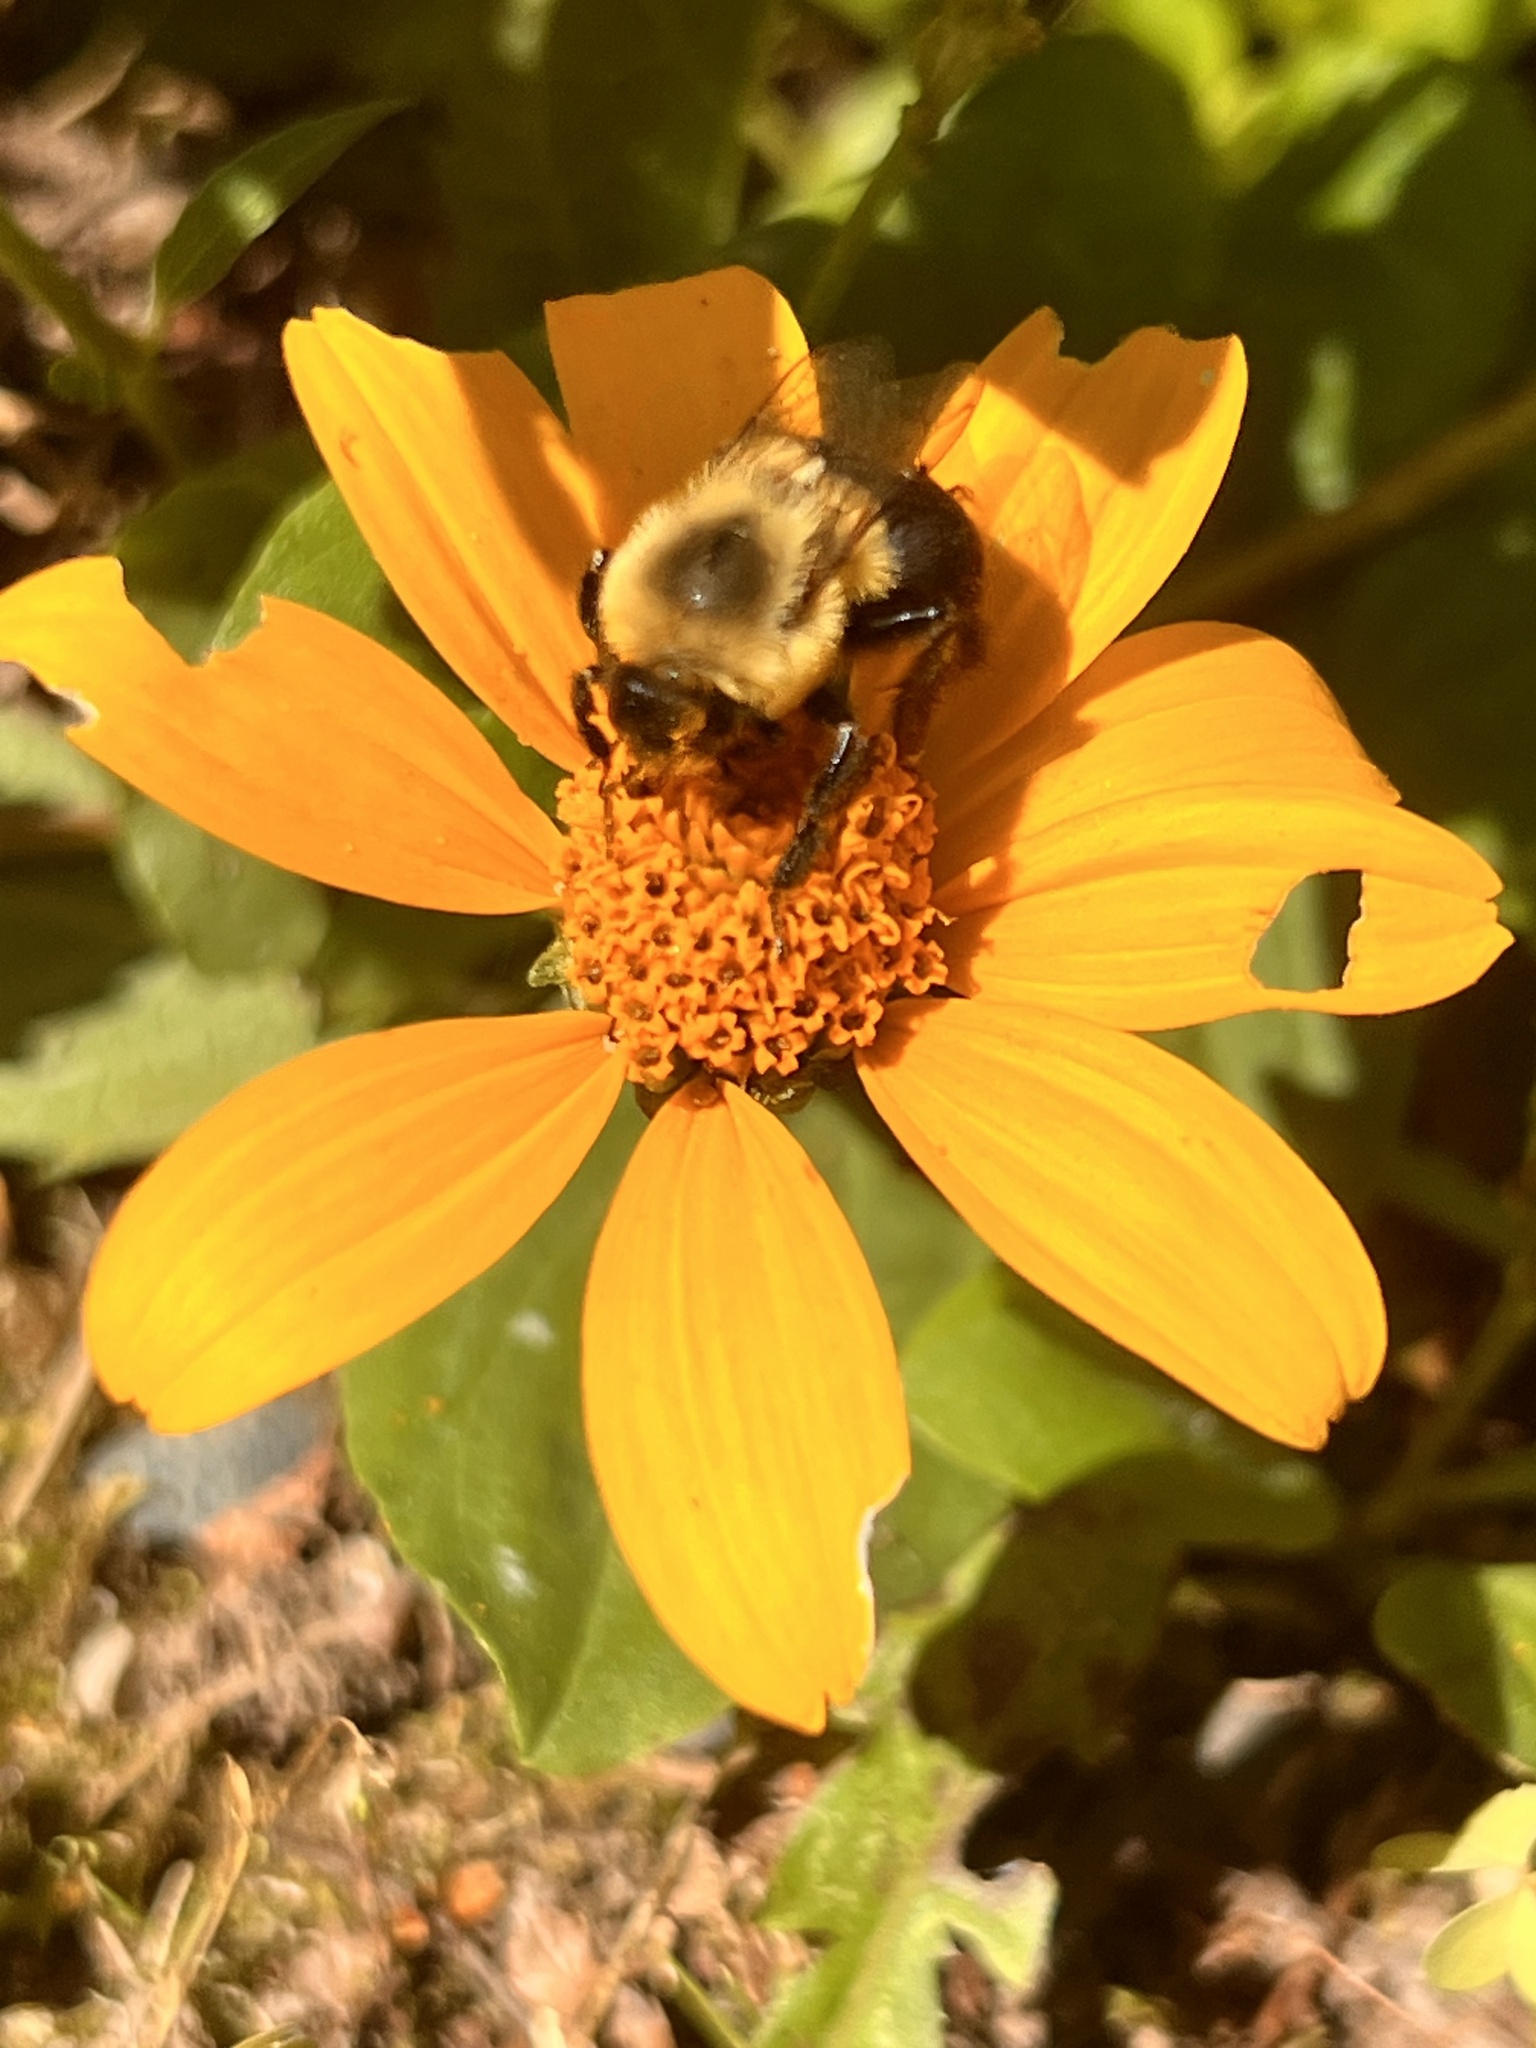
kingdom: Animalia
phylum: Arthropoda
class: Insecta
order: Hymenoptera
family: Apidae
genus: Bombus
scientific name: Bombus impatiens
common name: Common eastern bumble bee
